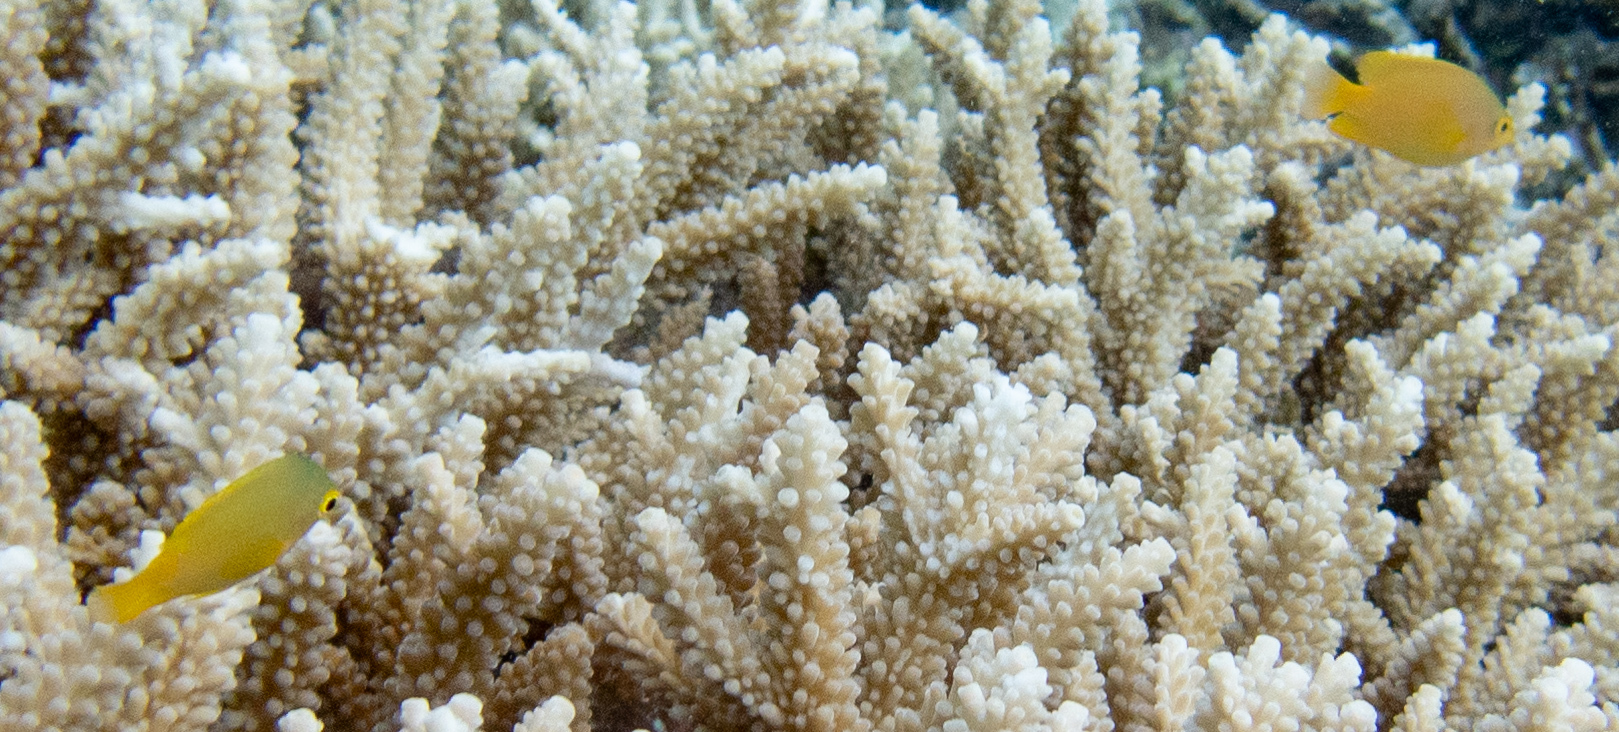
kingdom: Animalia
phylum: Chordata
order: Perciformes
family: Pomacentridae
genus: Pomacentrus
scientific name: Pomacentrus moluccensis
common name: Lemon damsel
